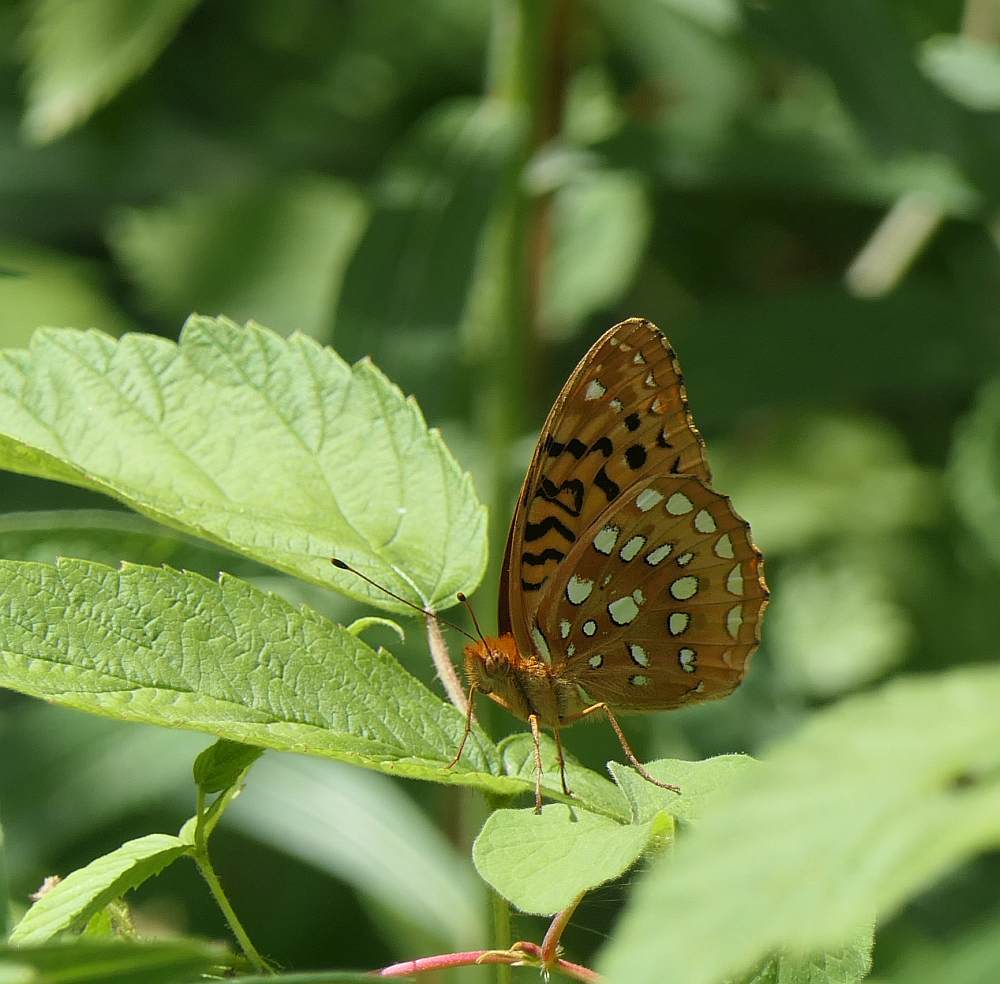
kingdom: Animalia
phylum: Arthropoda
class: Insecta
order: Lepidoptera
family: Nymphalidae
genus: Speyeria
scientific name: Speyeria cybele
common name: Great spangled fritillary
